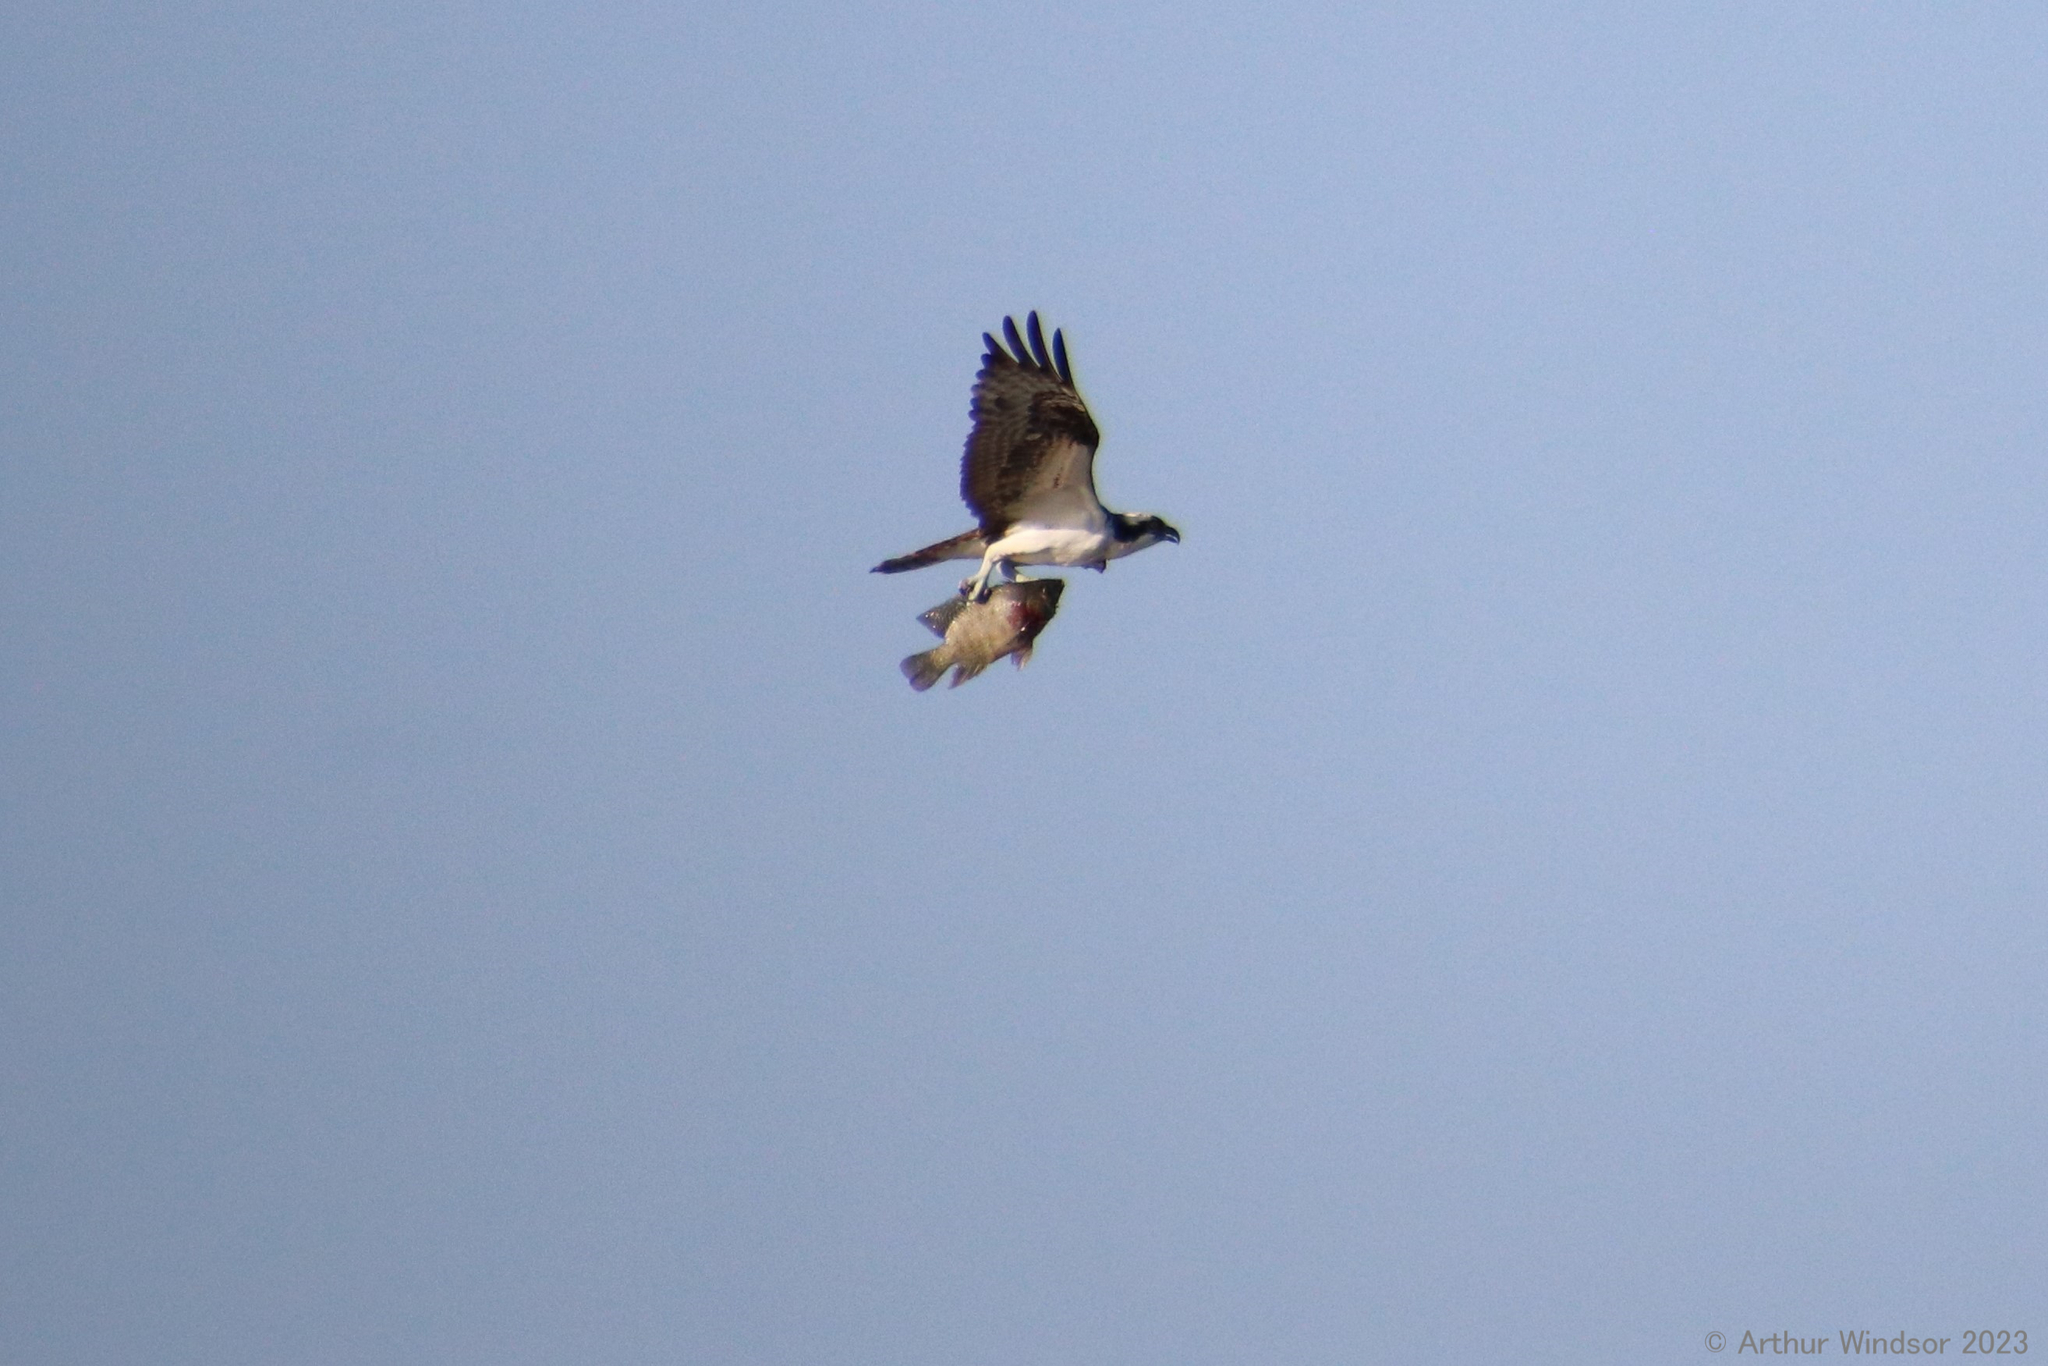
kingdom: Animalia
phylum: Chordata
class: Aves
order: Accipitriformes
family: Pandionidae
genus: Pandion
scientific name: Pandion haliaetus
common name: Osprey
